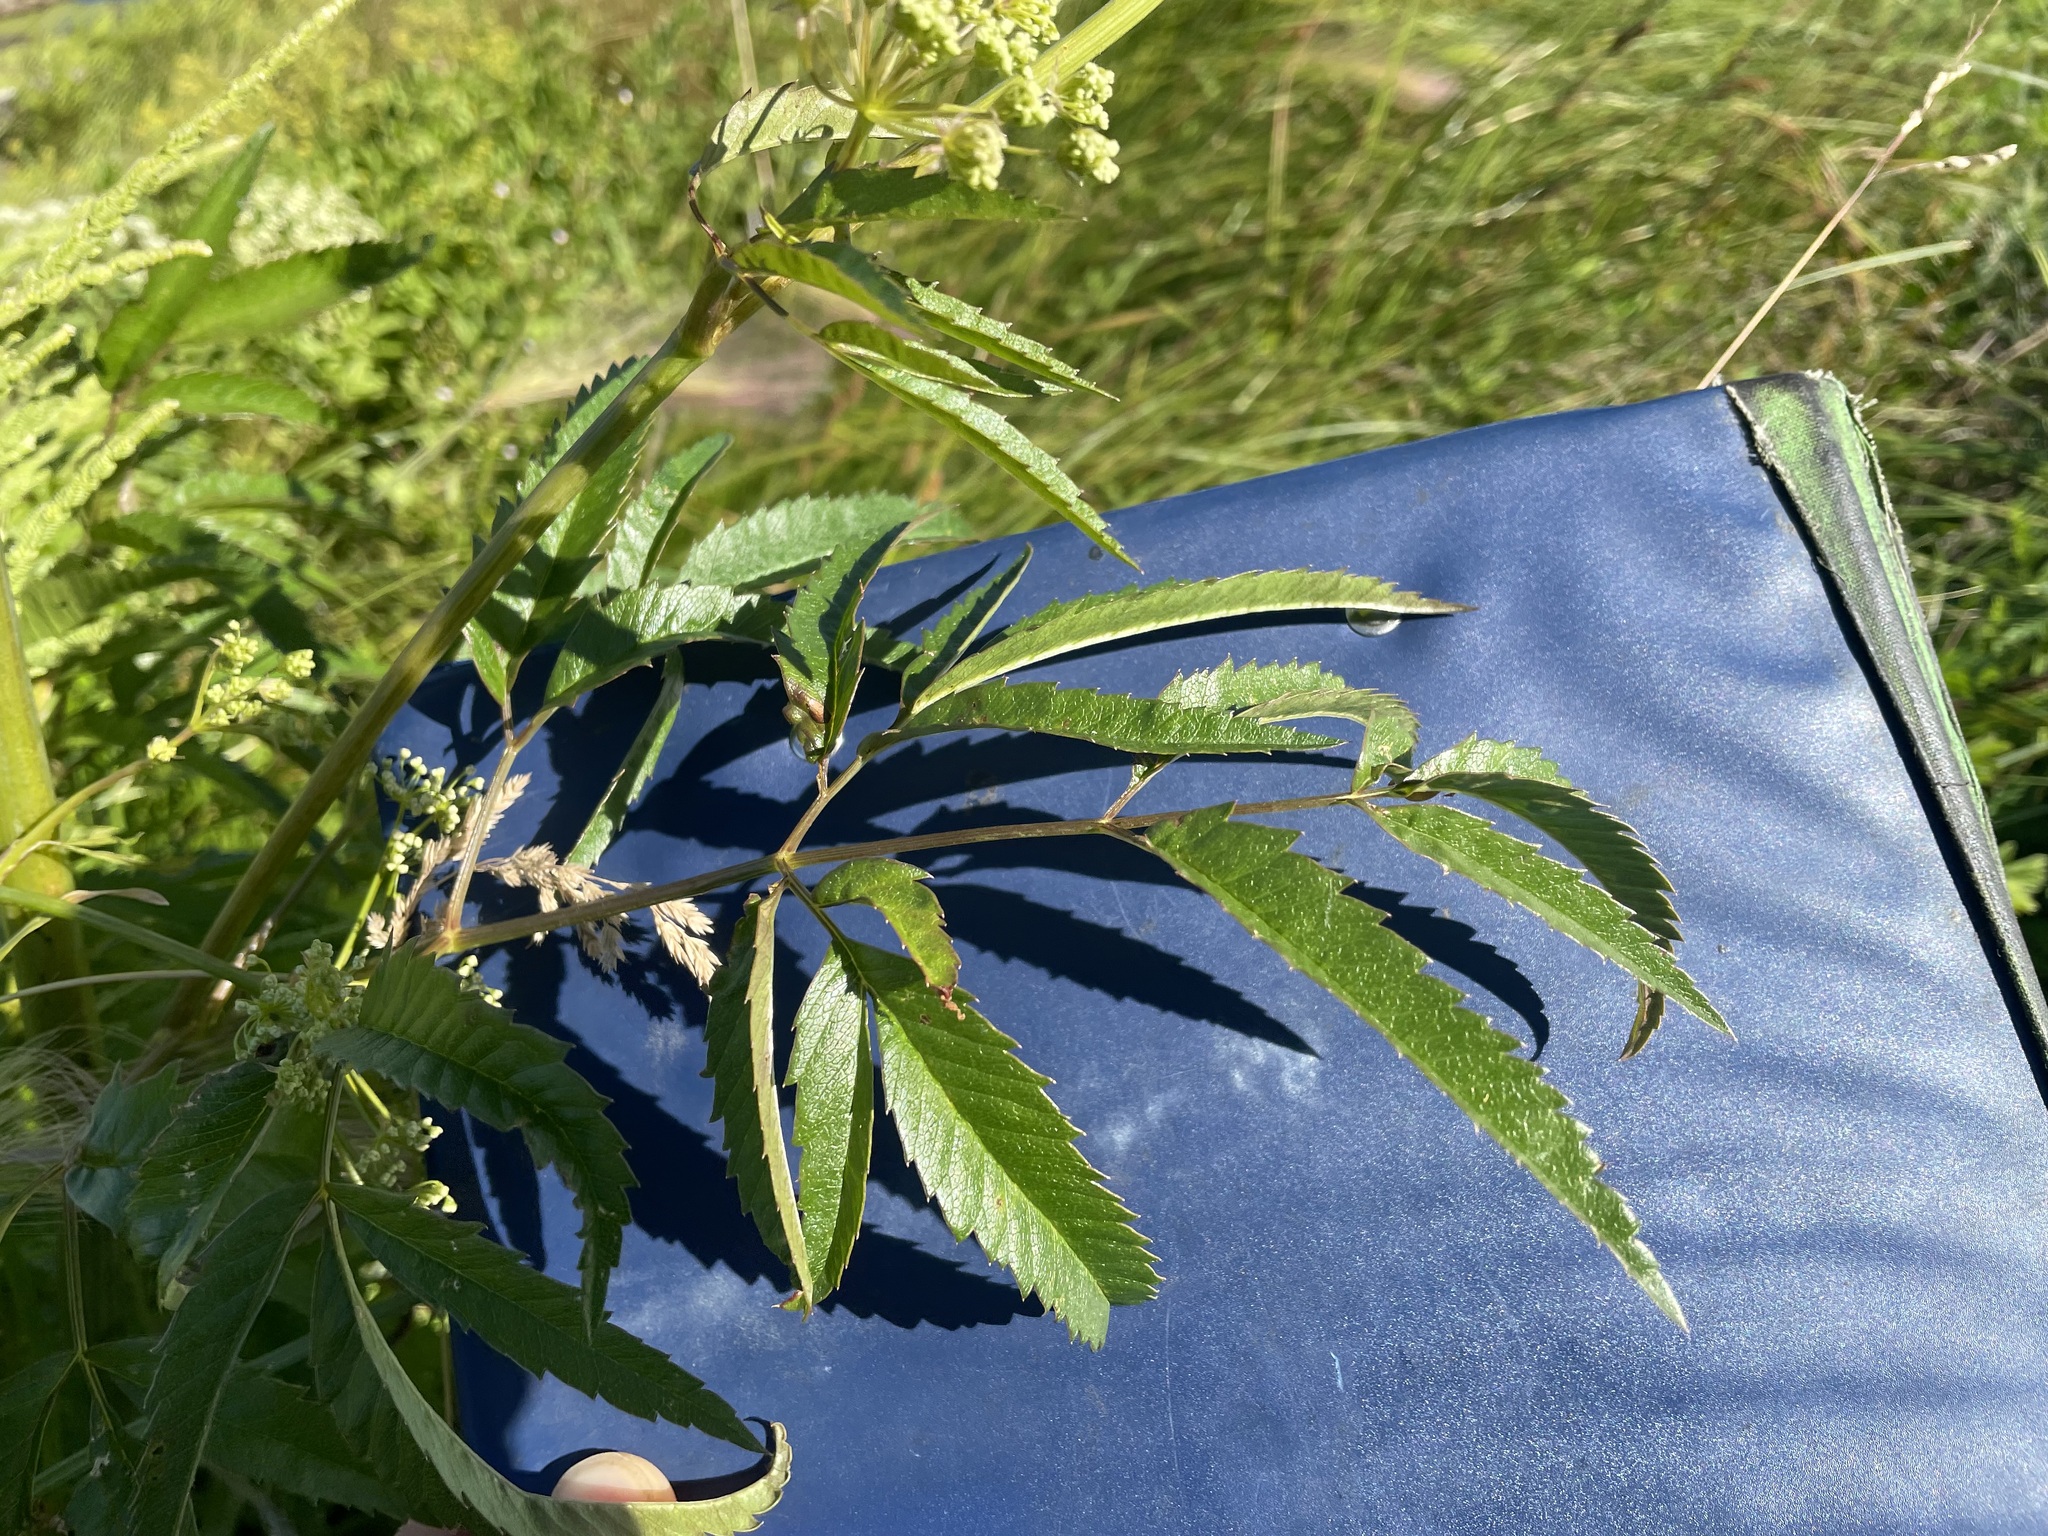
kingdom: Plantae
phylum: Tracheophyta
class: Magnoliopsida
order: Apiales
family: Apiaceae
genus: Cicuta
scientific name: Cicuta maculata
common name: Spotted cowbane
